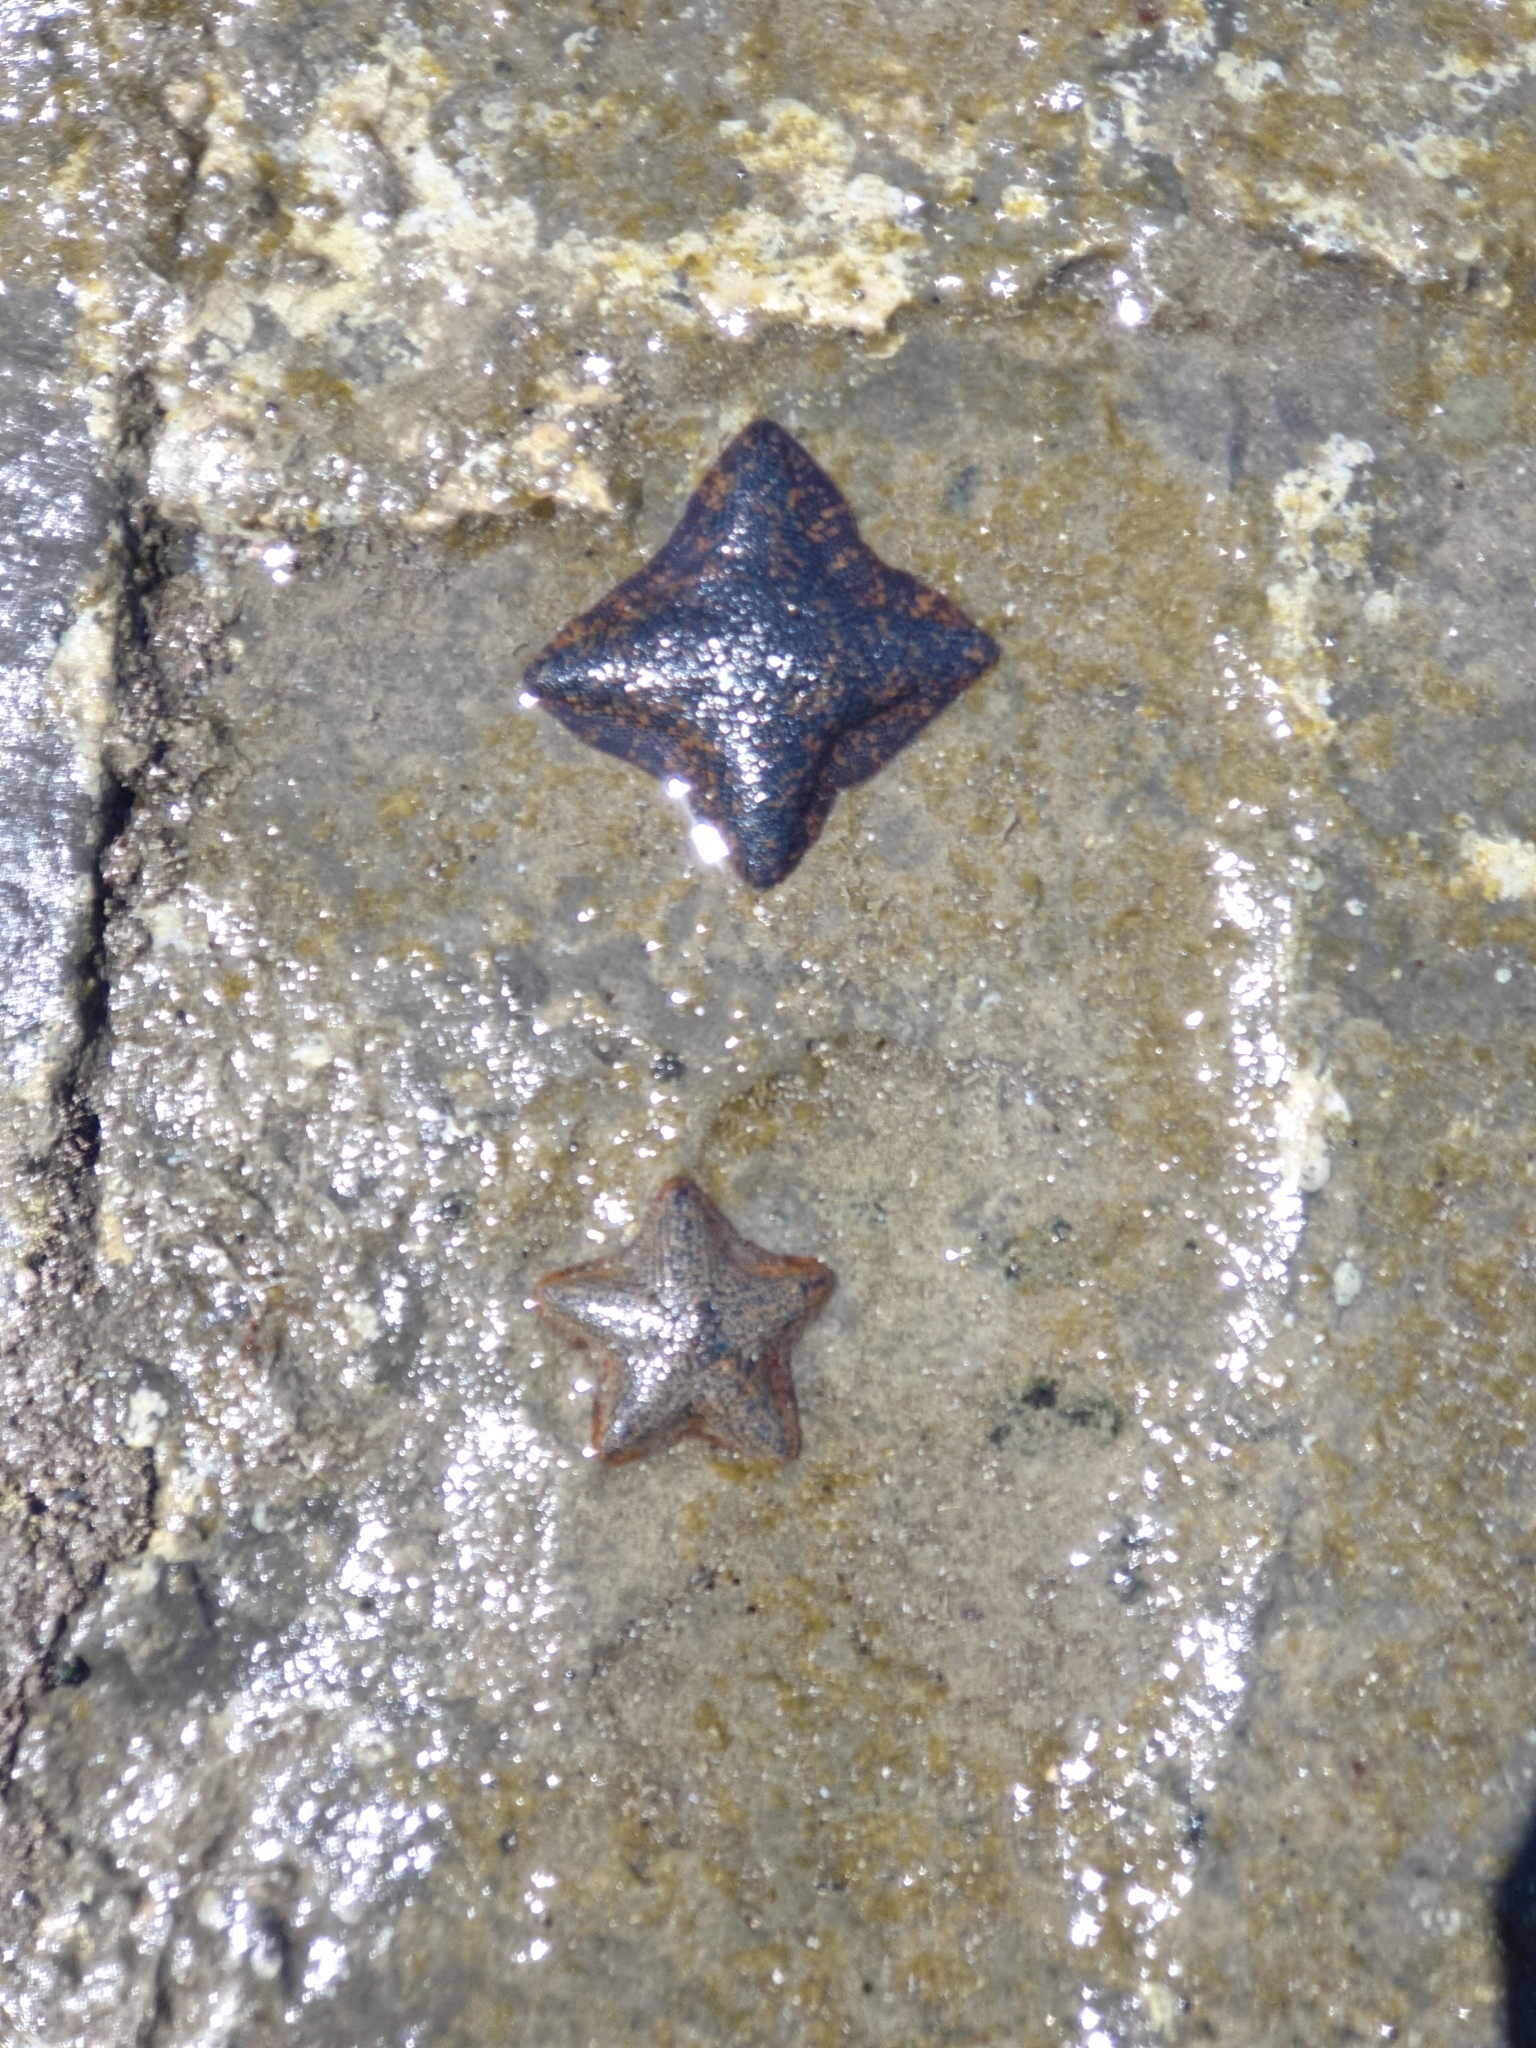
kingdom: Animalia
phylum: Echinodermata
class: Asteroidea
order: Valvatida
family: Asterinidae
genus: Patiriella
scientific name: Patiriella regularis
